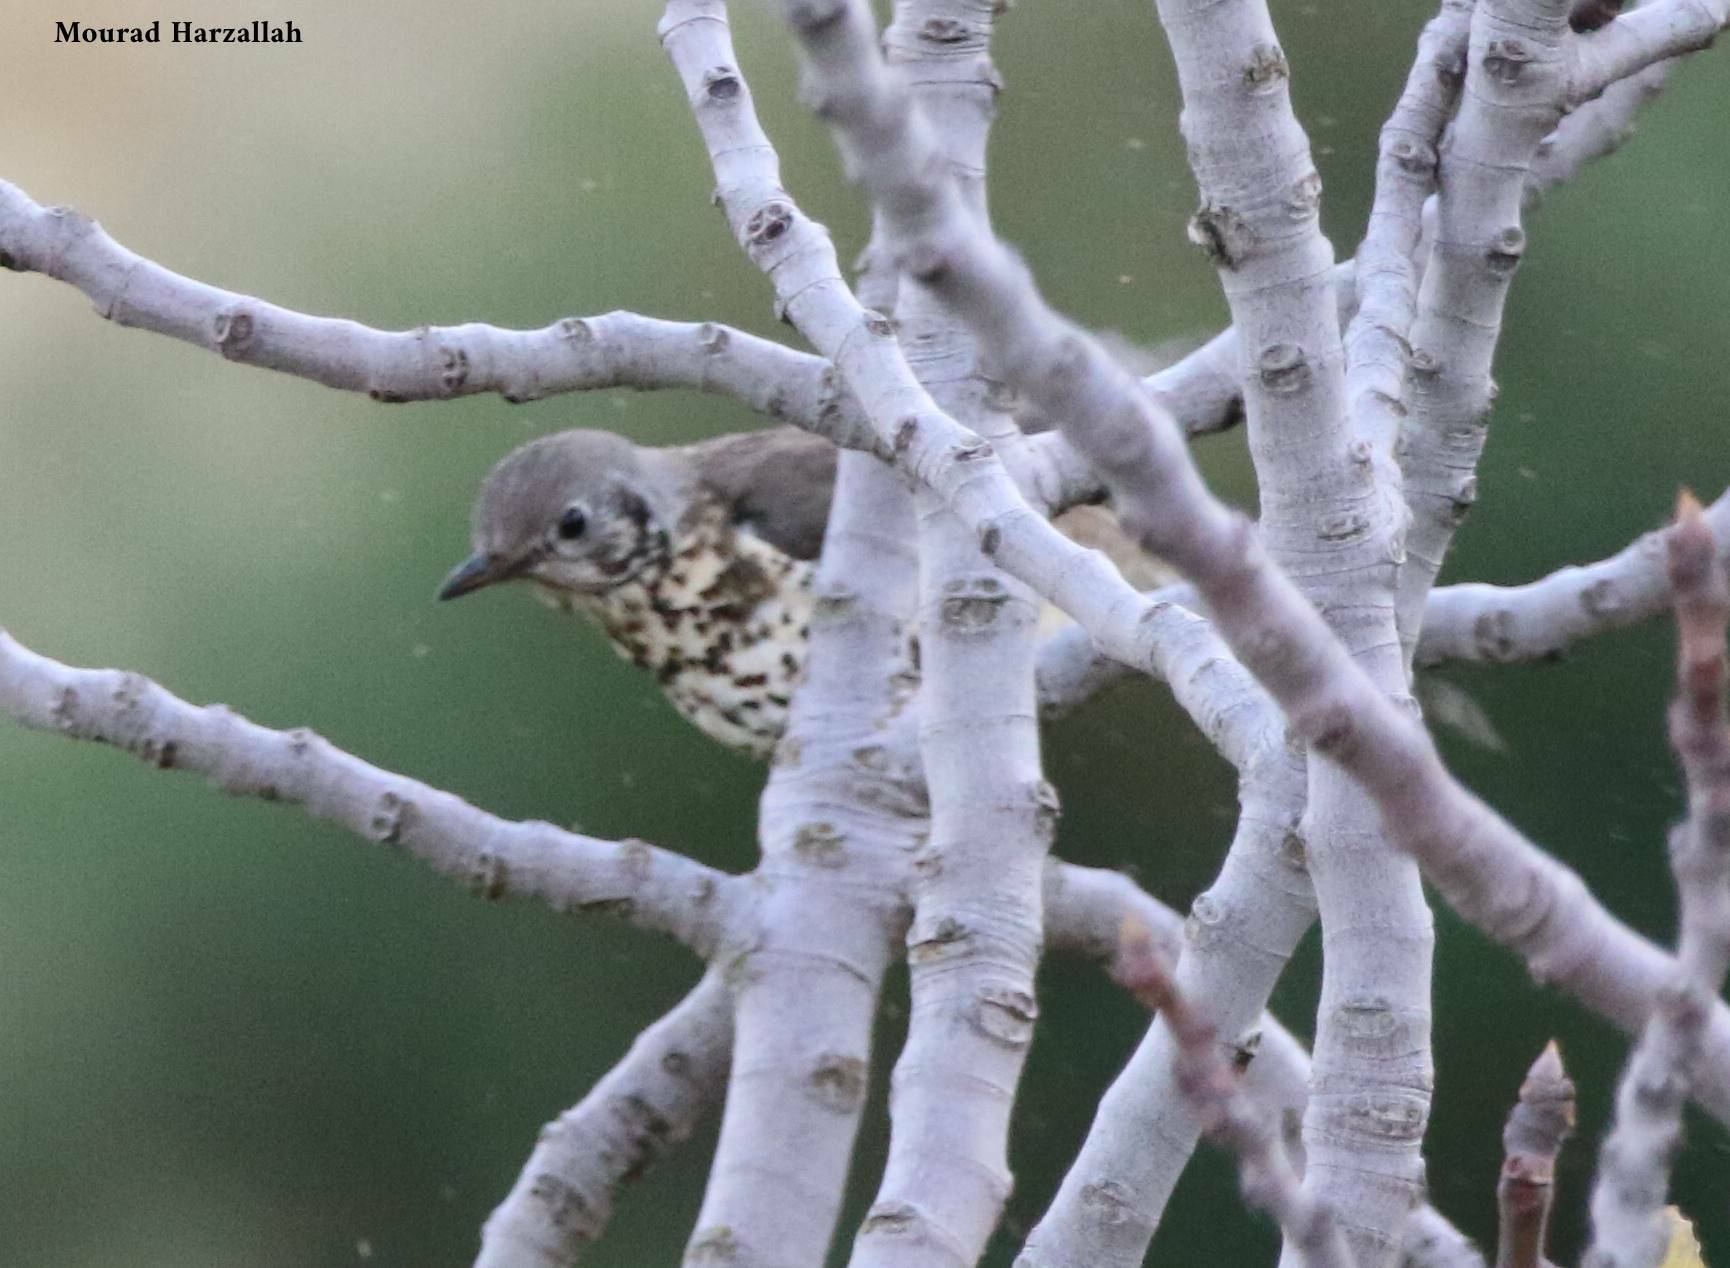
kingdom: Animalia
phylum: Chordata
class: Aves
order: Passeriformes
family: Turdidae
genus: Turdus
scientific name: Turdus viscivorus
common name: Mistle thrush
